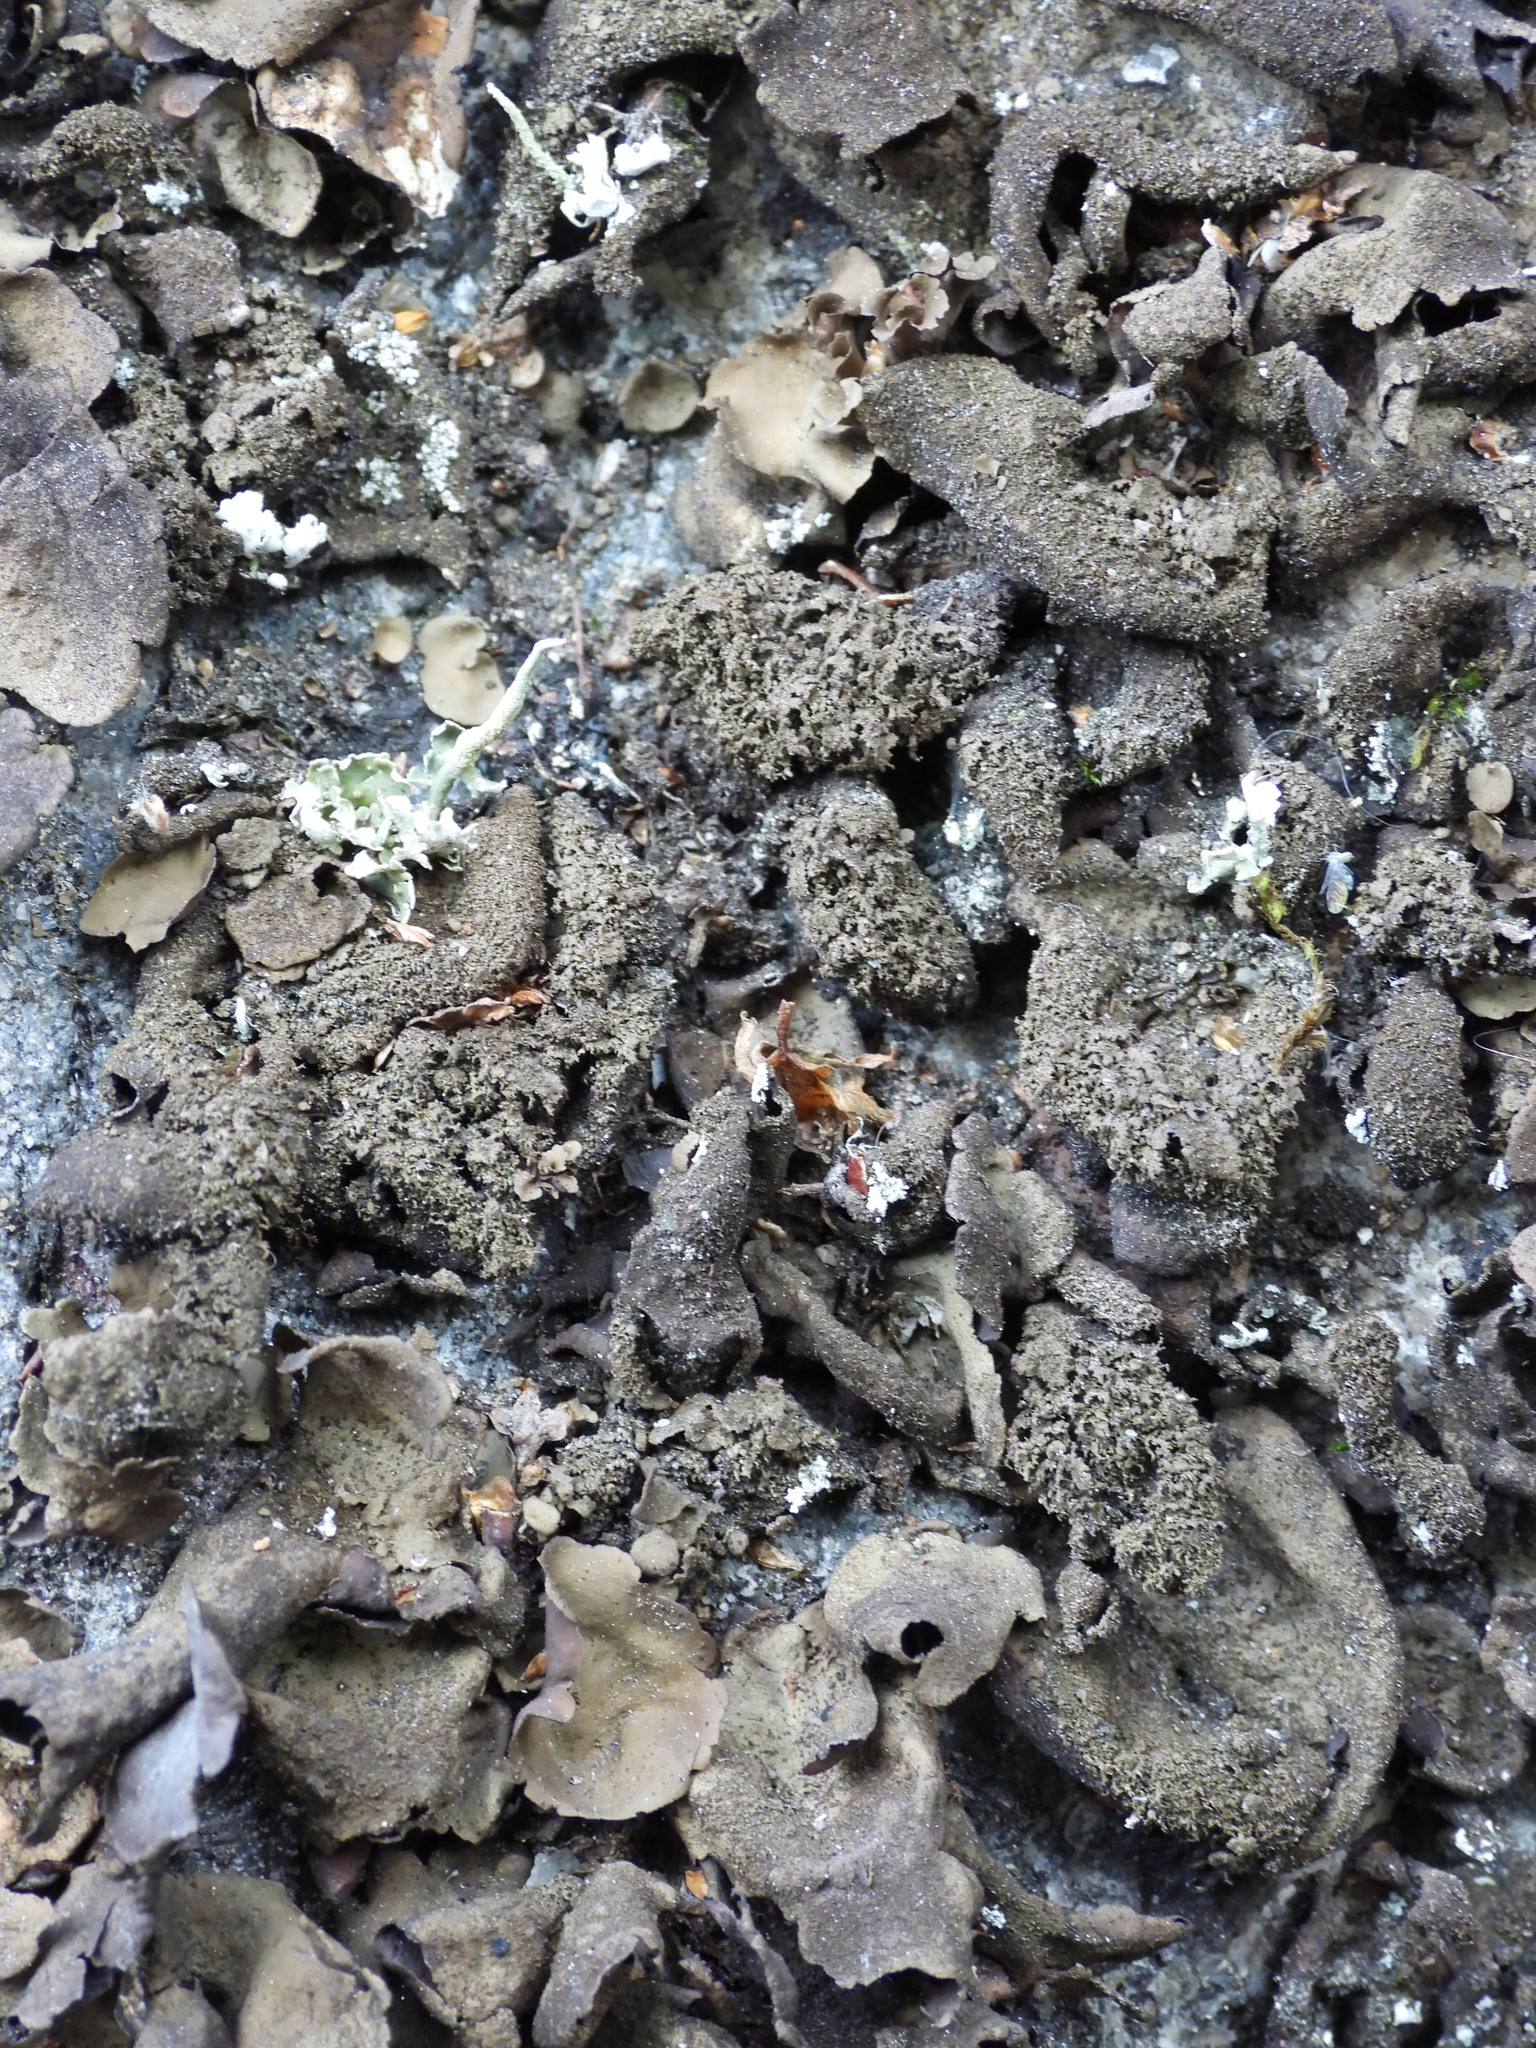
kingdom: Fungi
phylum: Ascomycota
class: Lecanoromycetes
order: Umbilicariales
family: Umbilicariaceae
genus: Umbilicaria
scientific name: Umbilicaria deusta
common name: Peppered rock tripe
